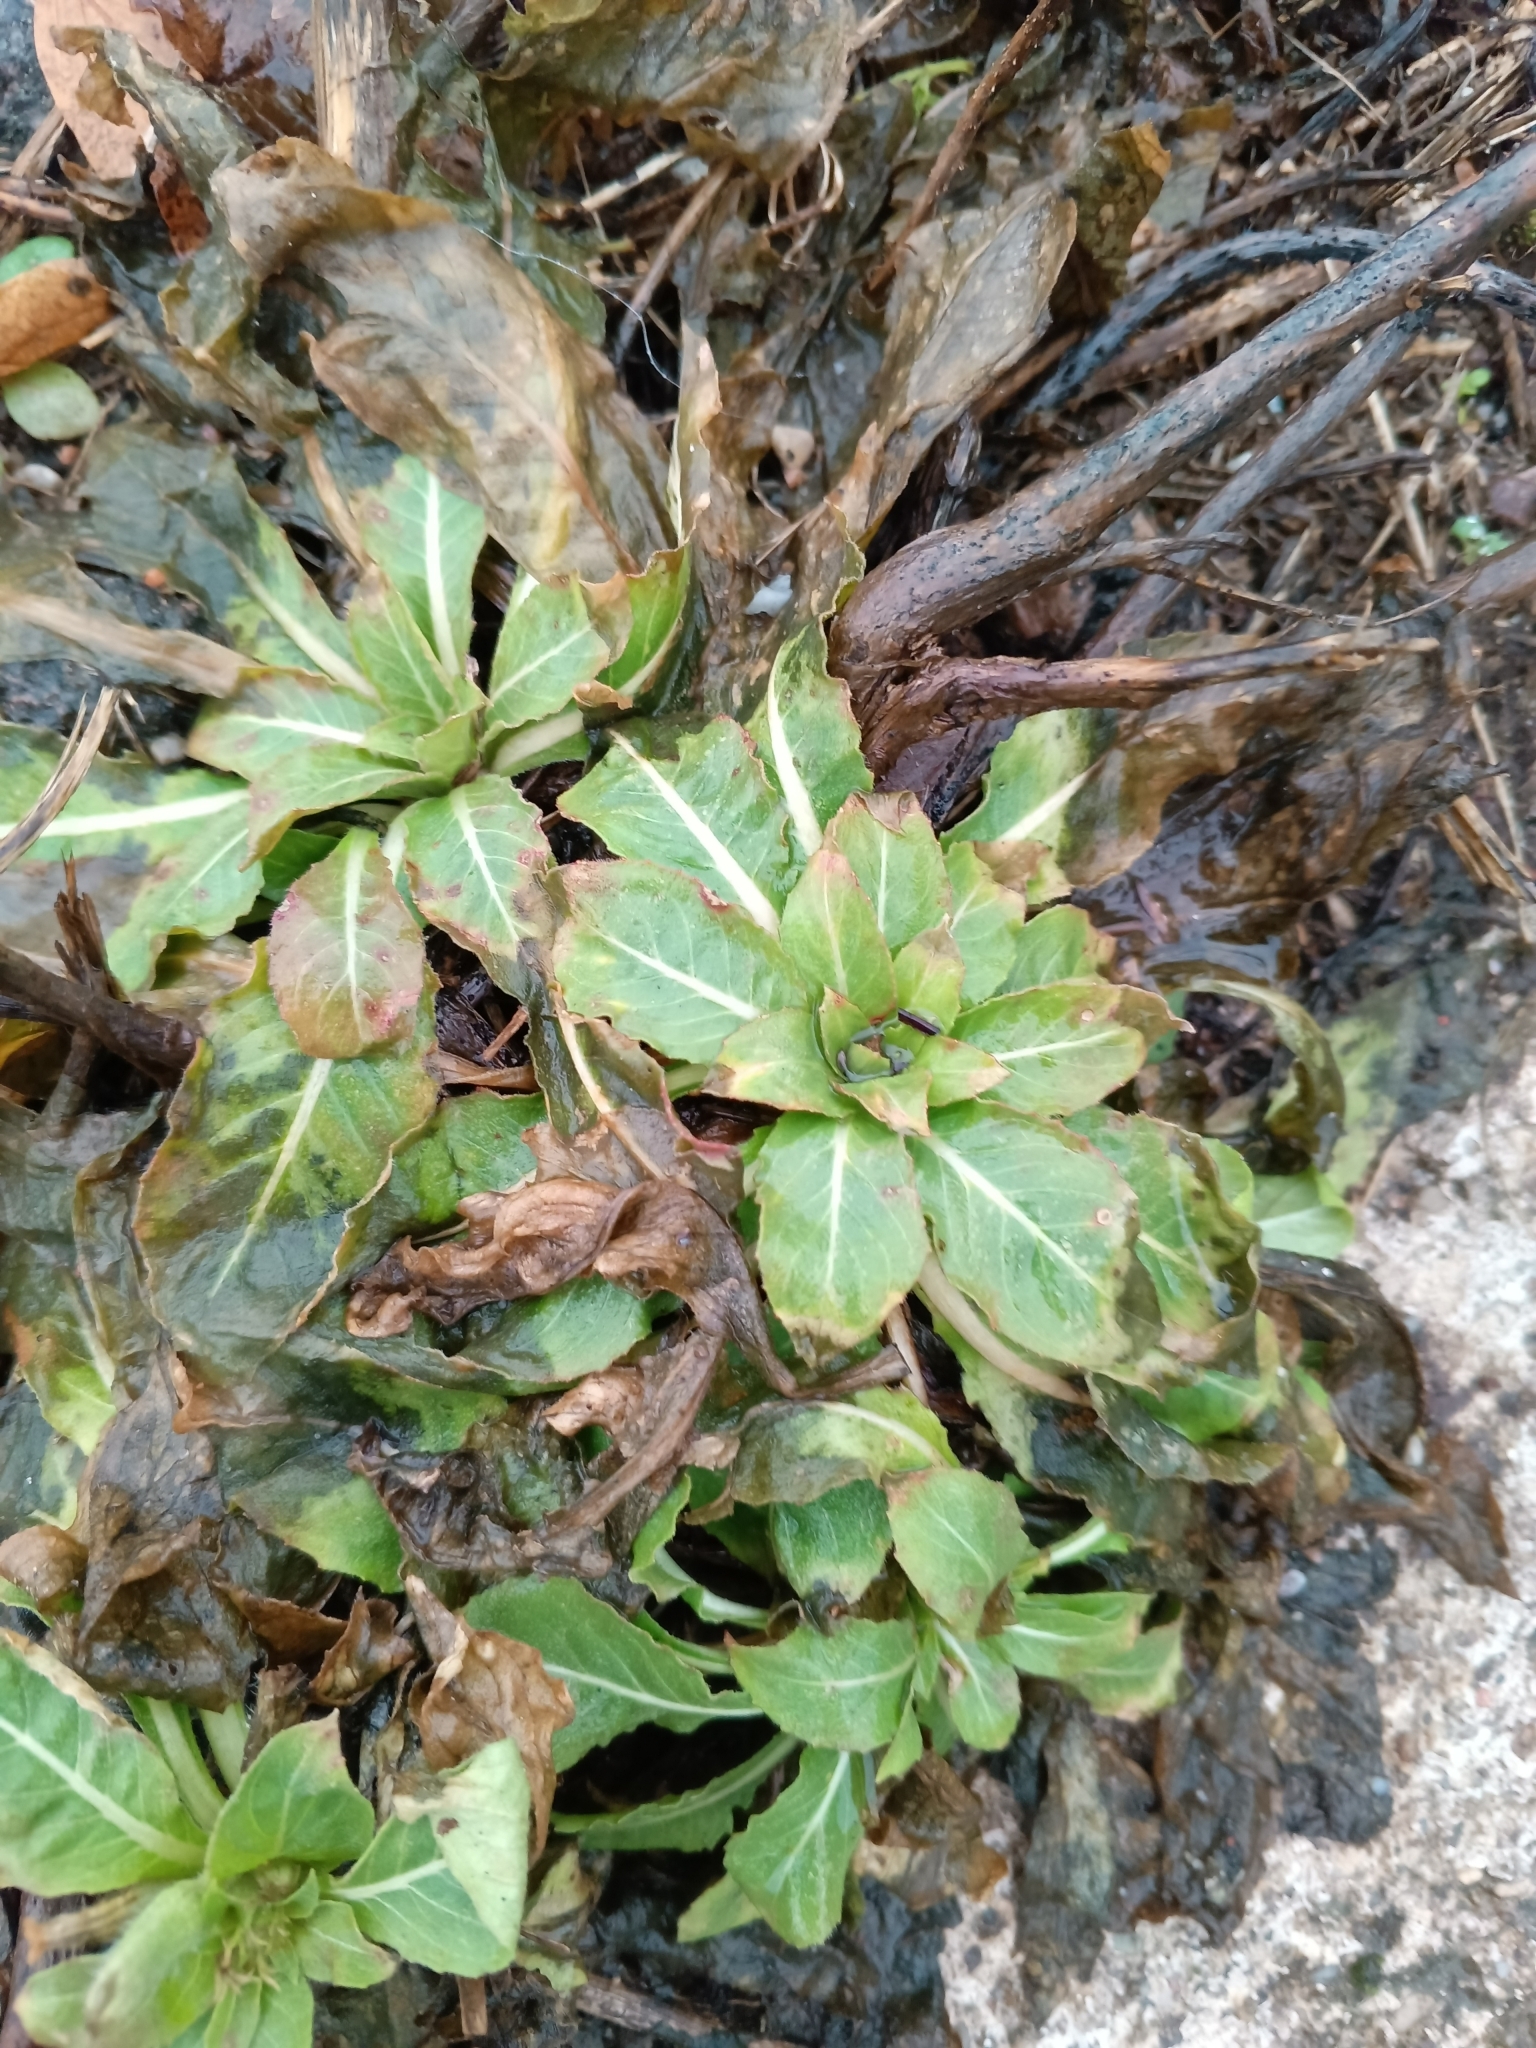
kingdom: Plantae
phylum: Tracheophyta
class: Magnoliopsida
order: Myrtales
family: Onagraceae
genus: Oenothera
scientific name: Oenothera
